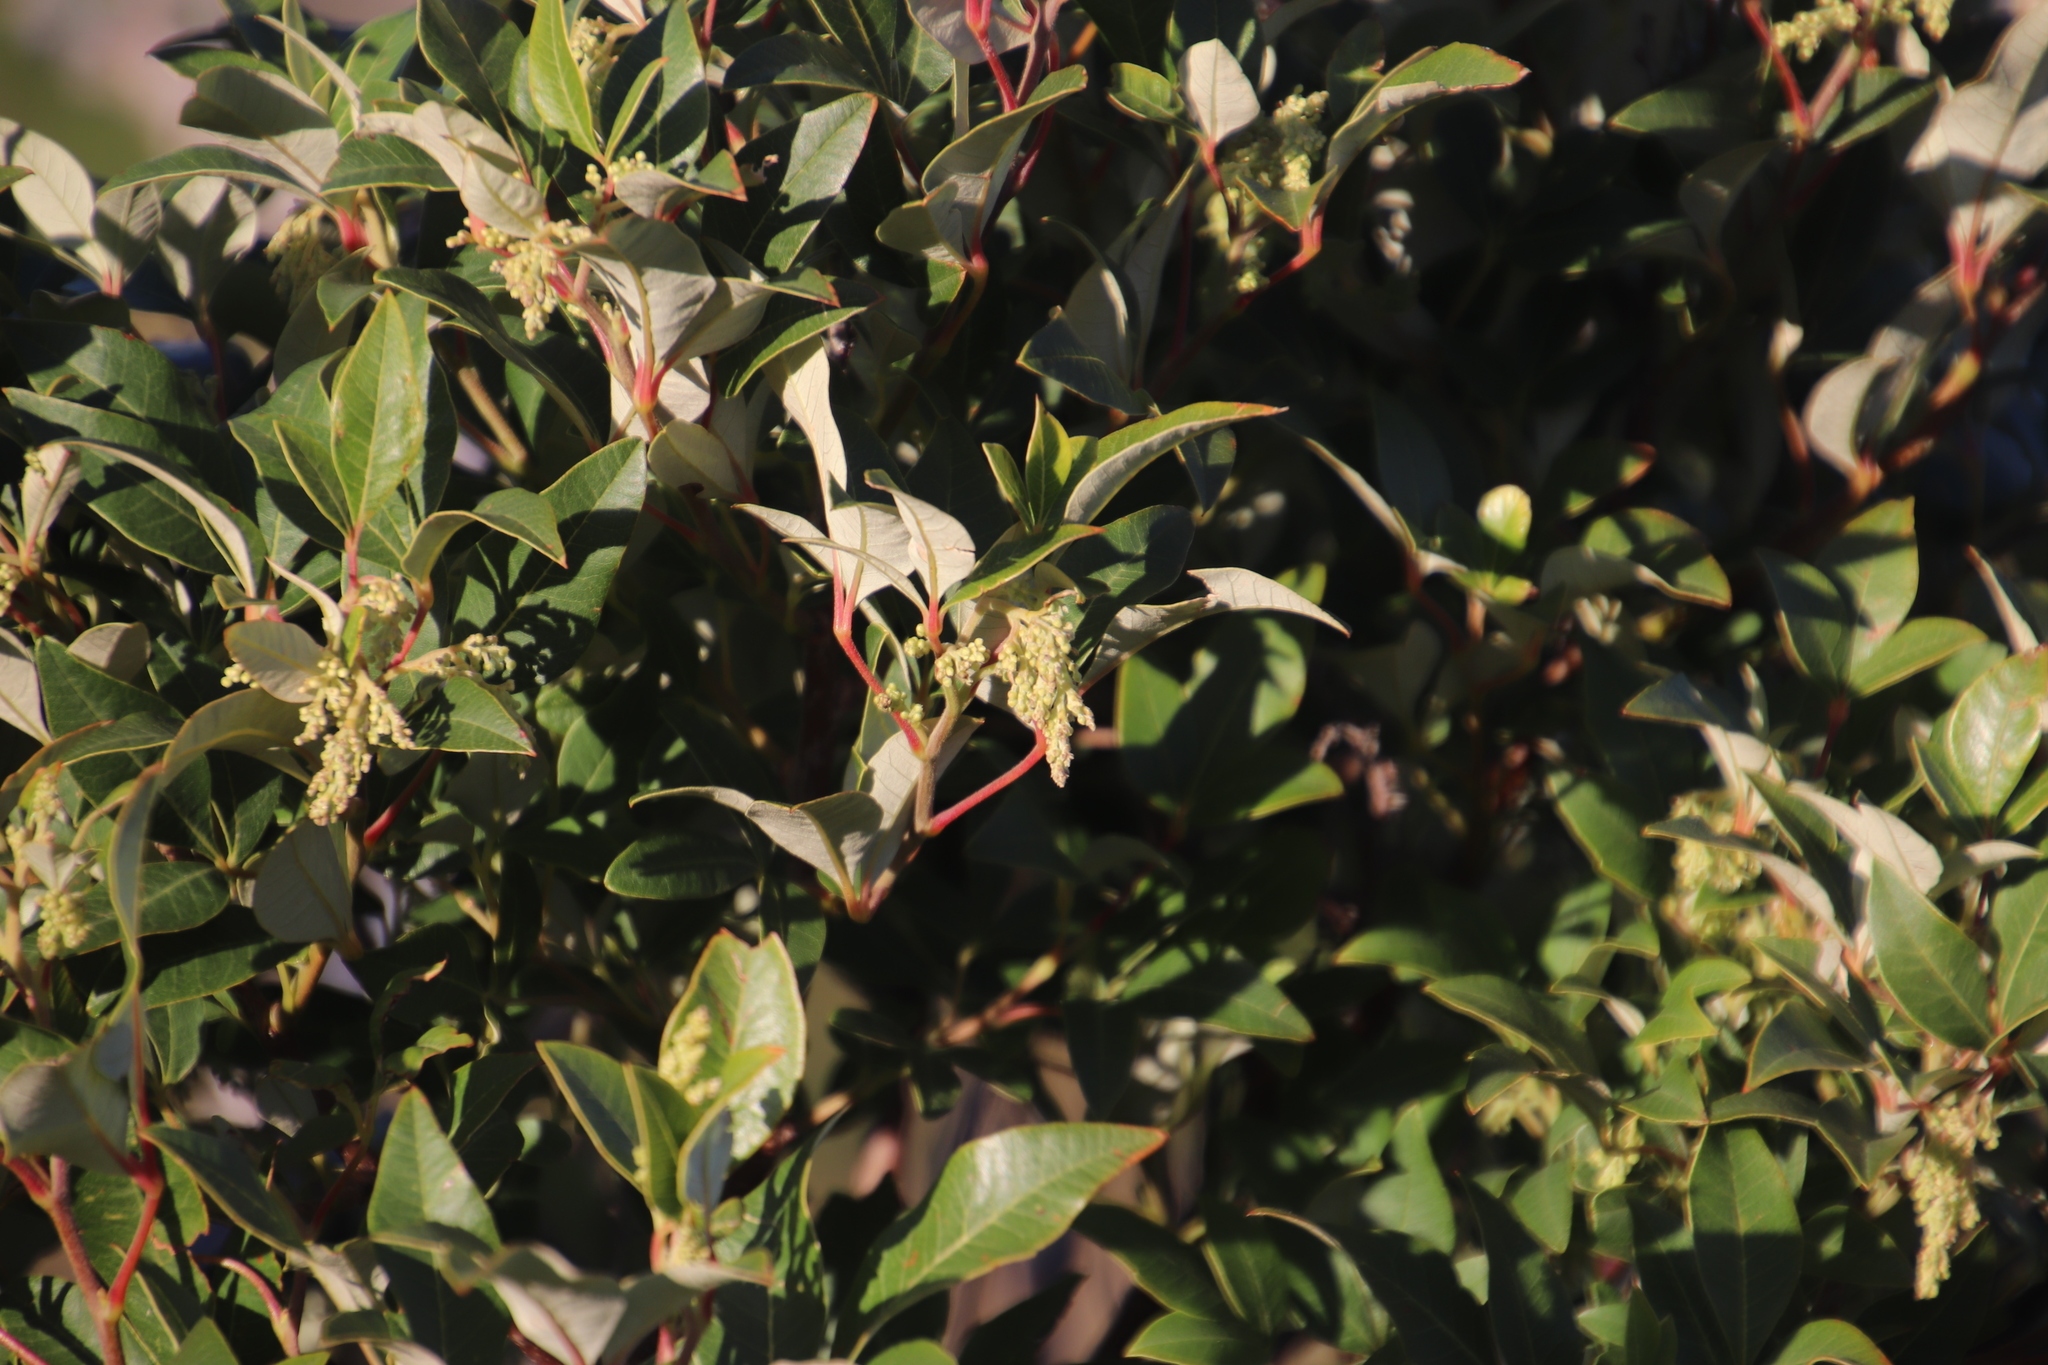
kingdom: Plantae
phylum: Tracheophyta
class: Magnoliopsida
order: Sapindales
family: Anacardiaceae
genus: Searsia
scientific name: Searsia tomentosa
